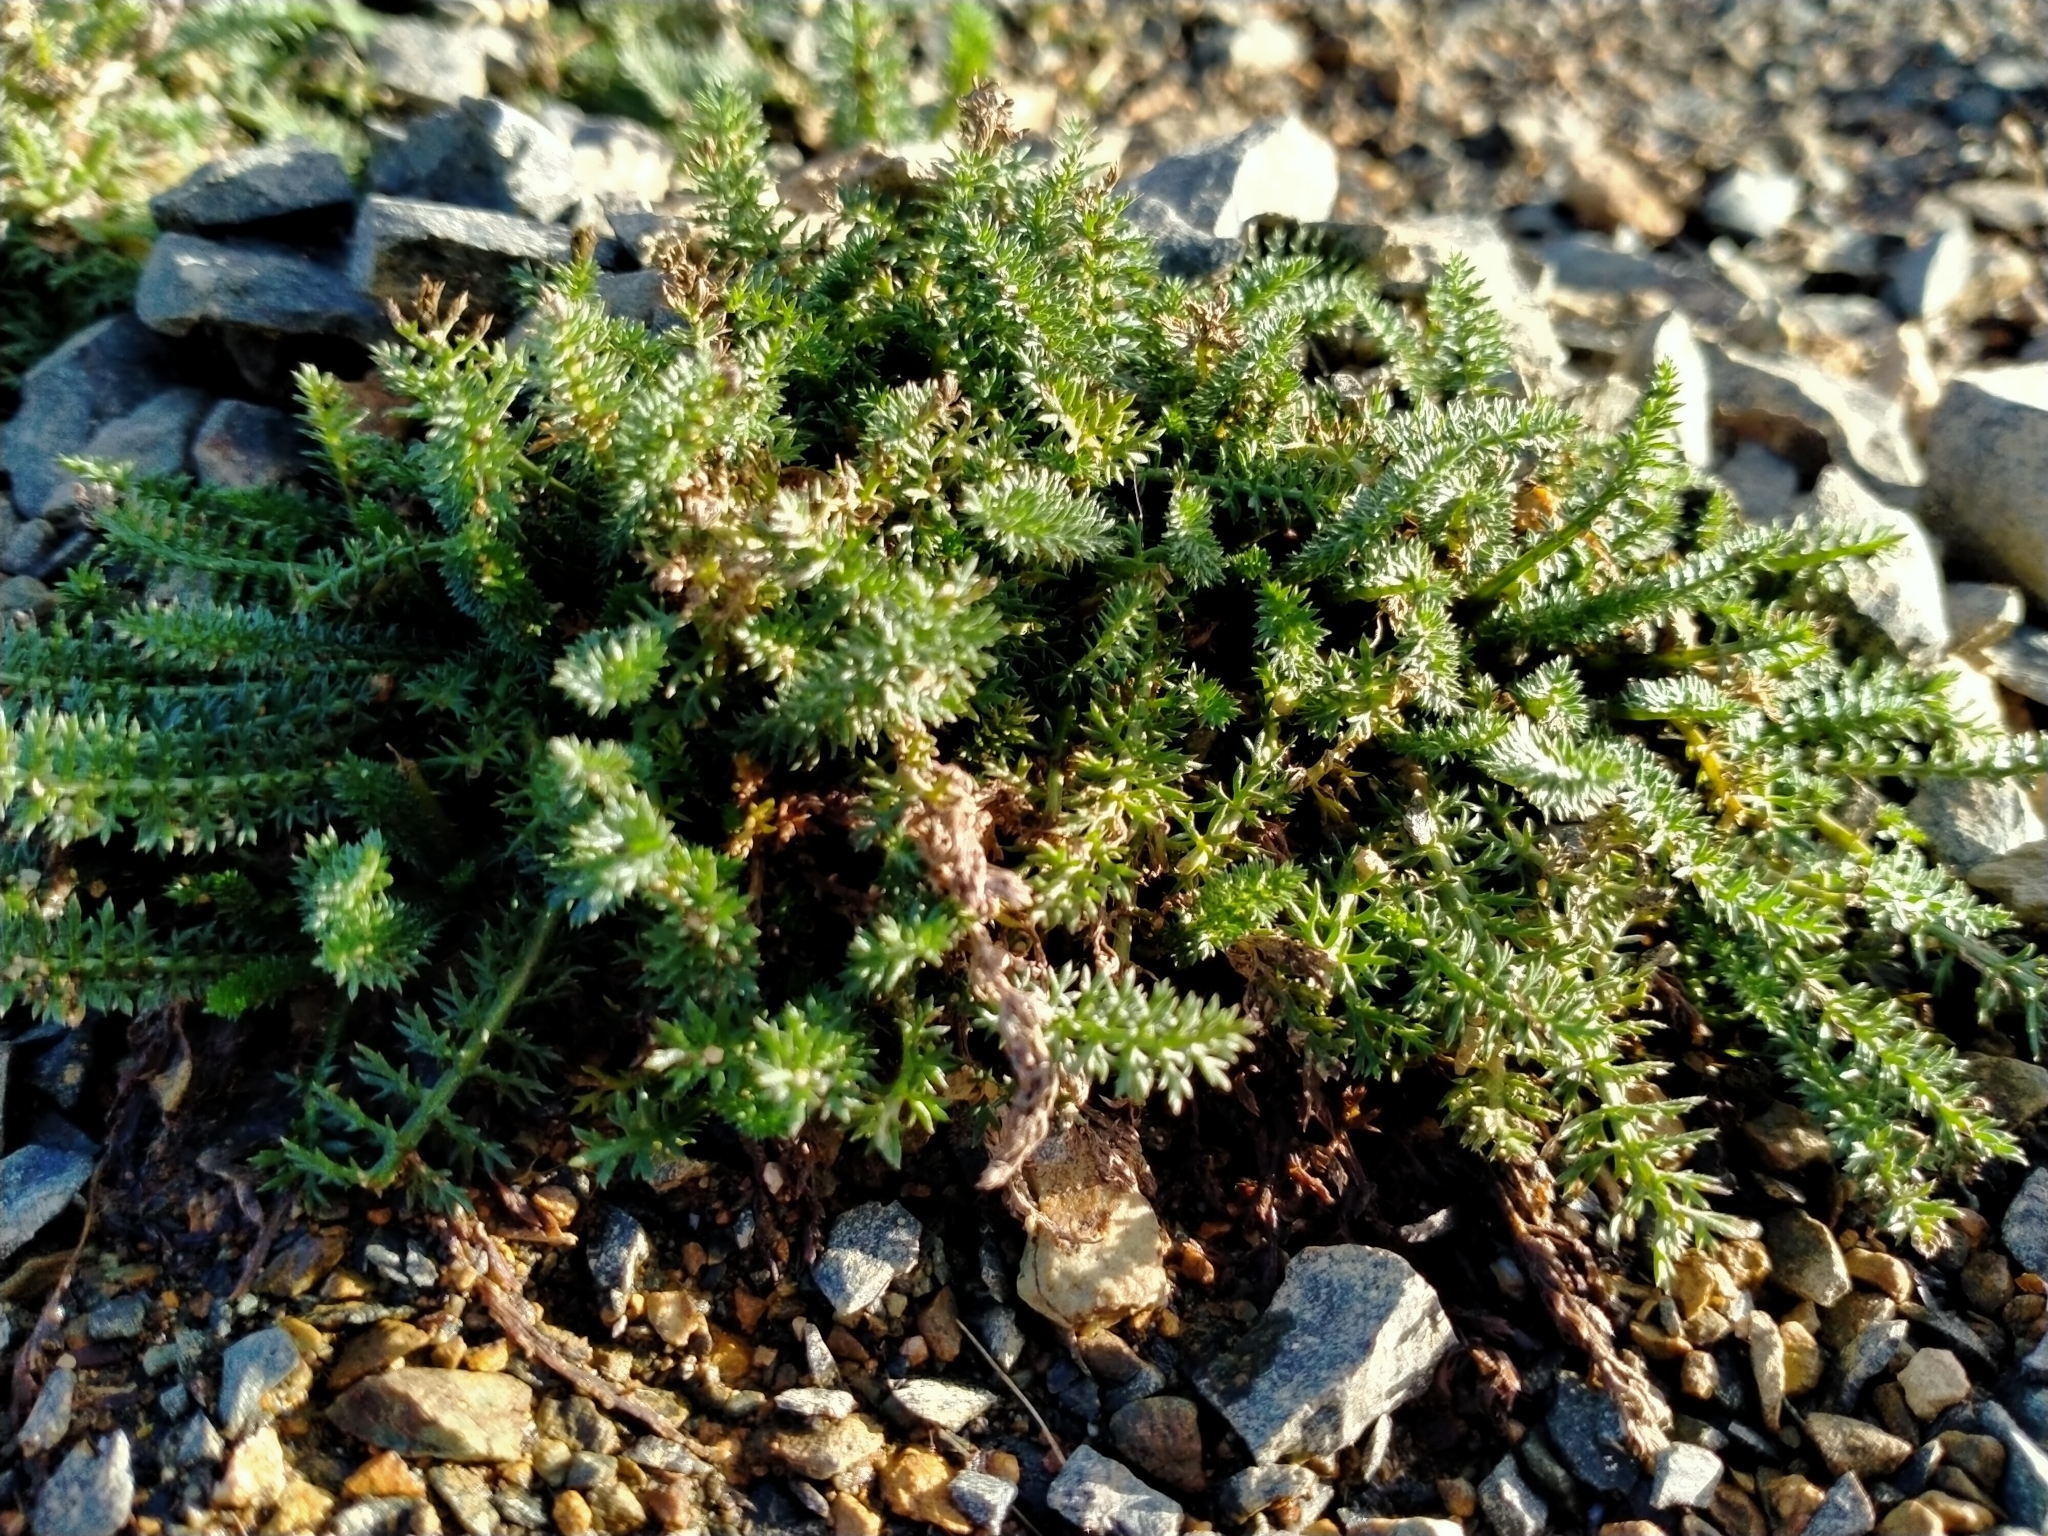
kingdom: Plantae
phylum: Tracheophyta
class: Magnoliopsida
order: Asterales
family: Asteraceae
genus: Achillea
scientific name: Achillea millefolium
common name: Yarrow
